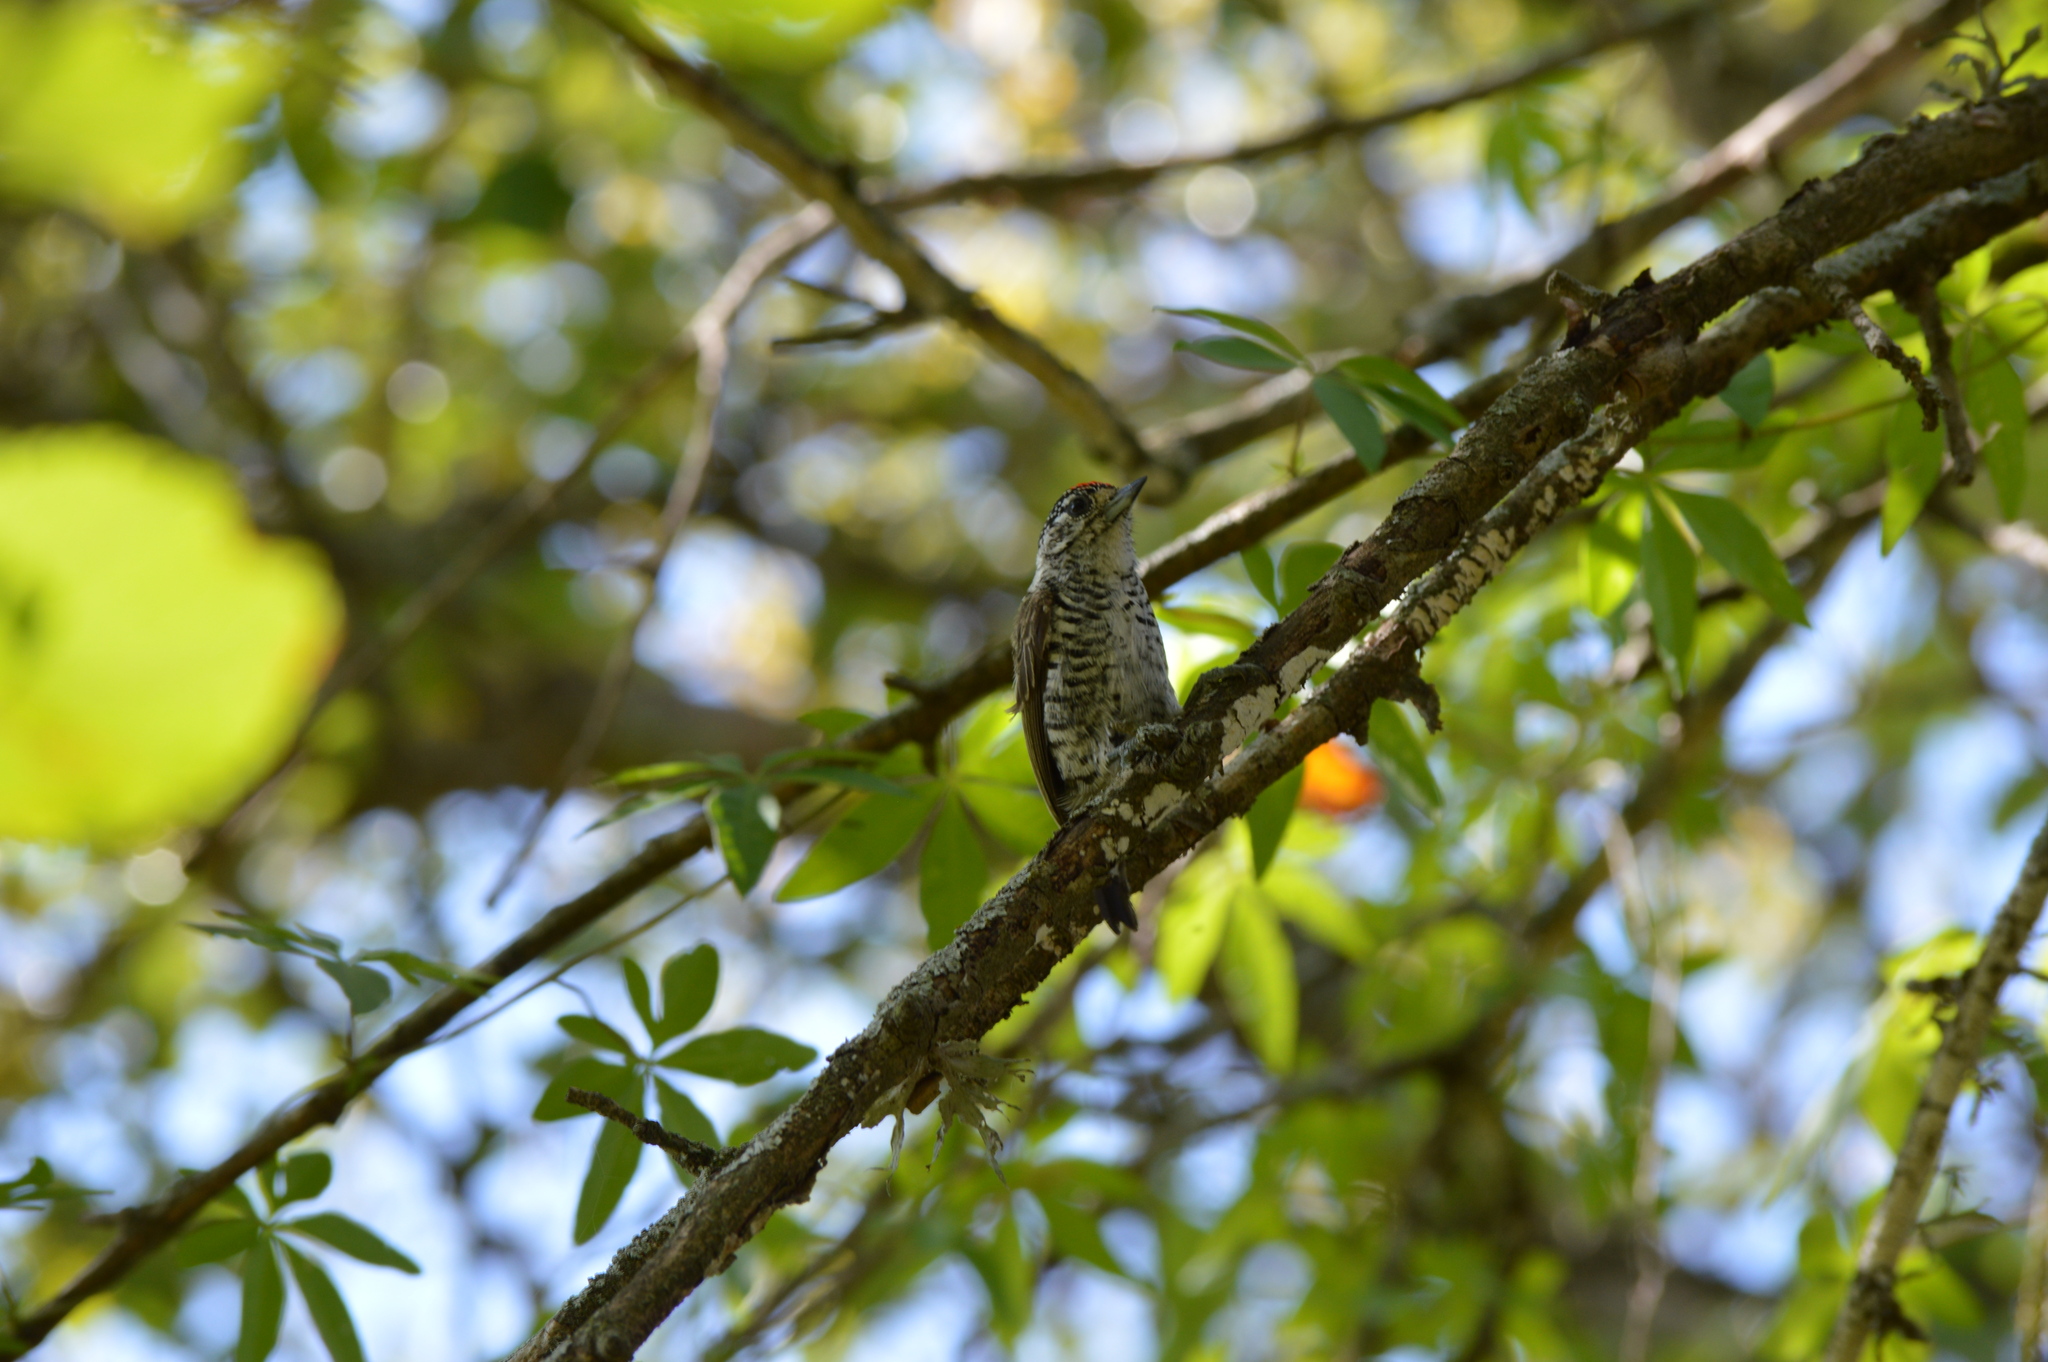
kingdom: Animalia
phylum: Chordata
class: Aves
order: Piciformes
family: Picidae
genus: Picumnus
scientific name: Picumnus cirratus
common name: White-barred piculet
